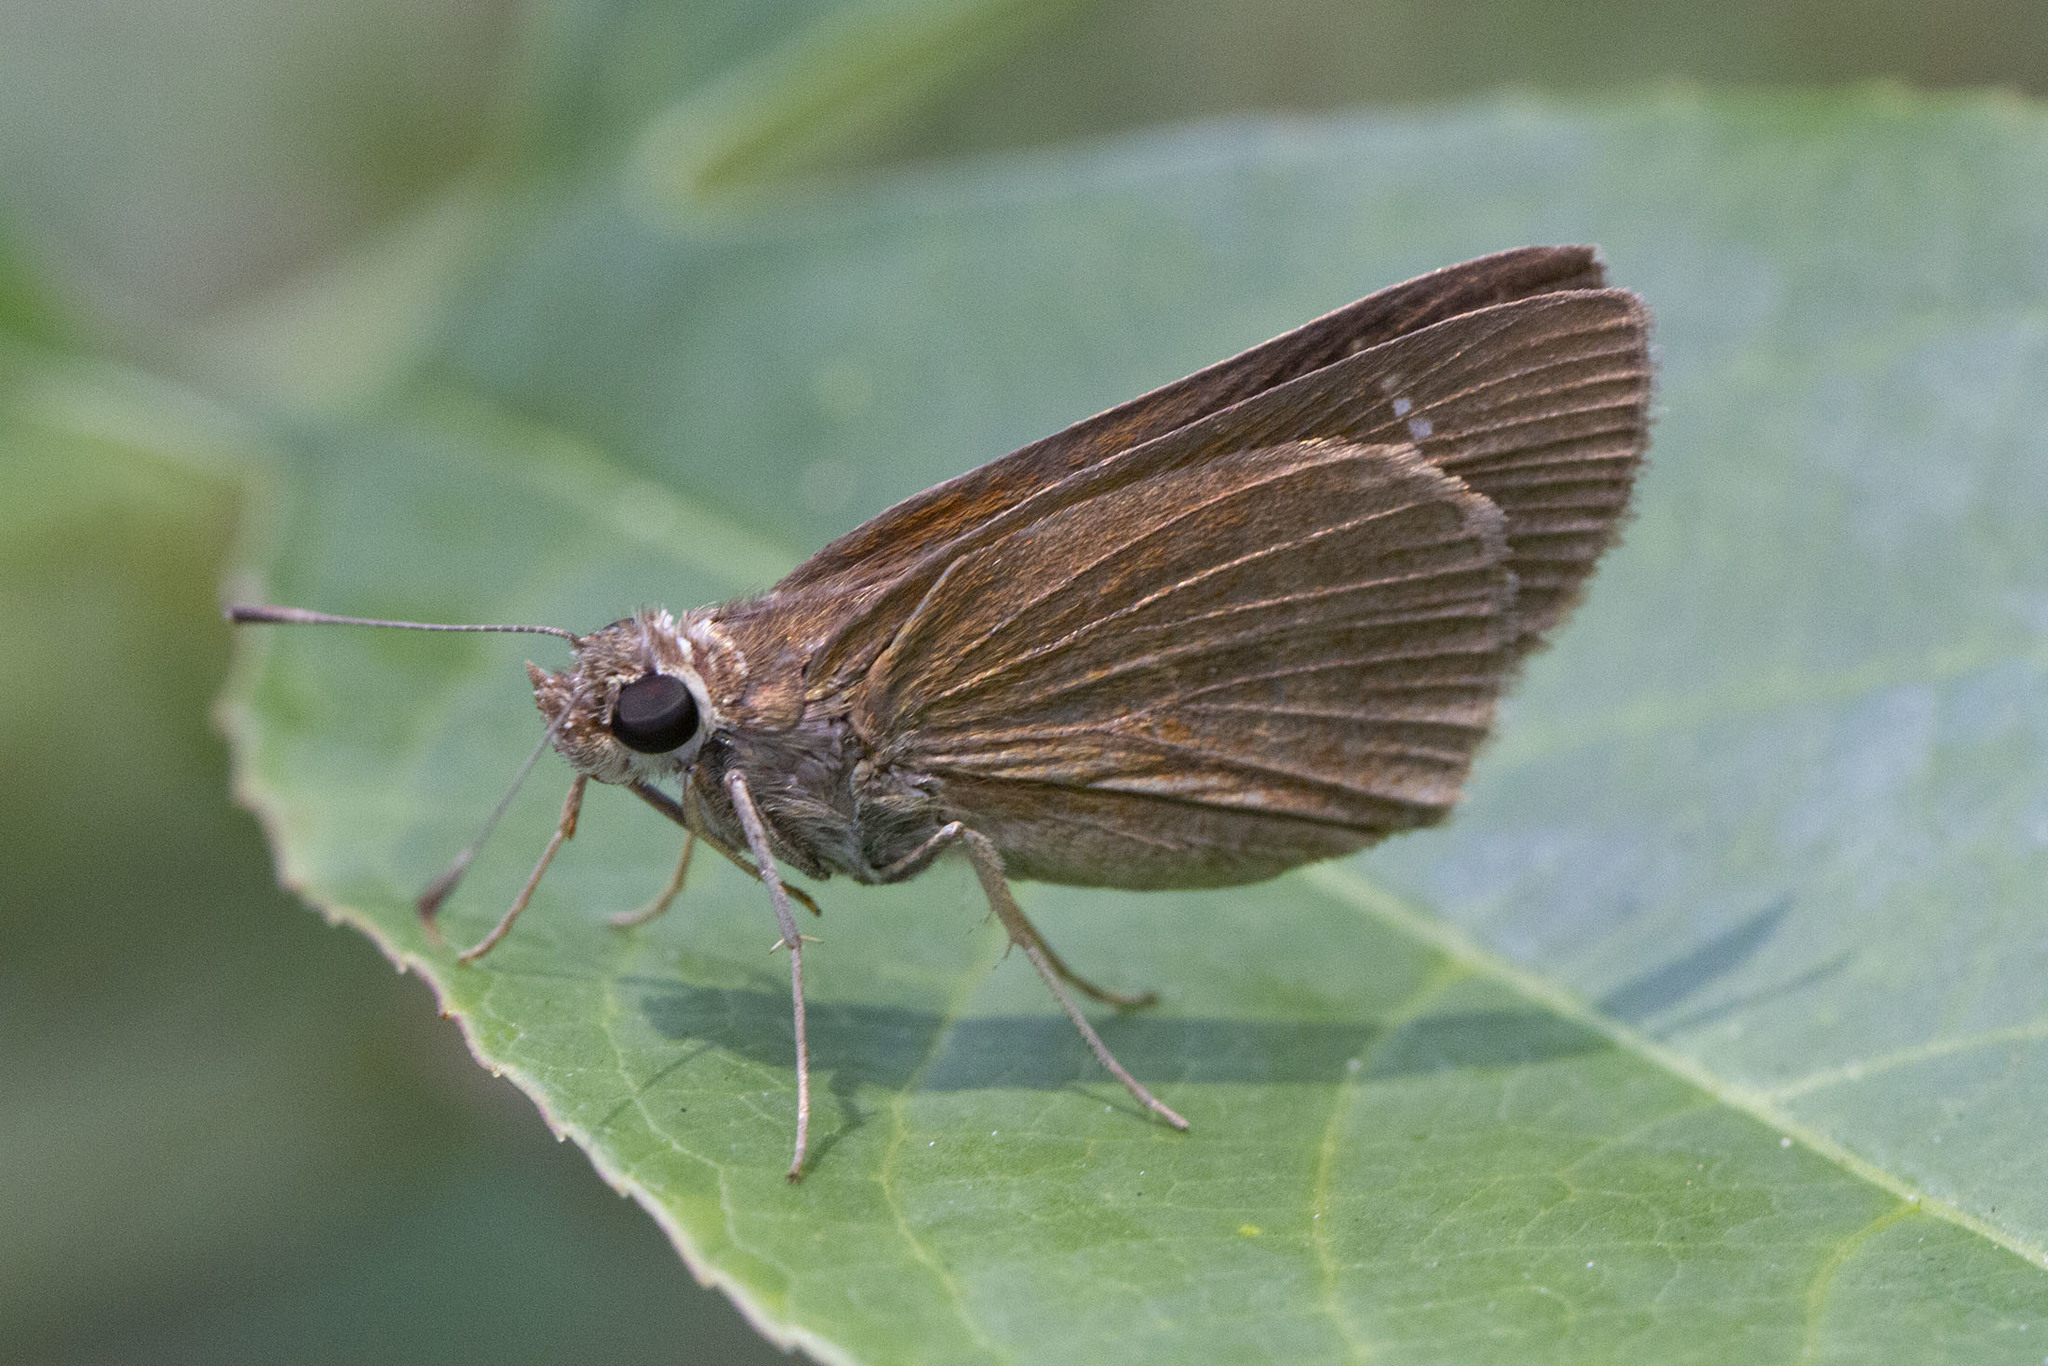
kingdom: Animalia
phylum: Arthropoda
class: Insecta
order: Lepidoptera
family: Hesperiidae
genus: Cymaenes
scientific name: Cymaenes tripunctus
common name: Dingy dotted skipper
